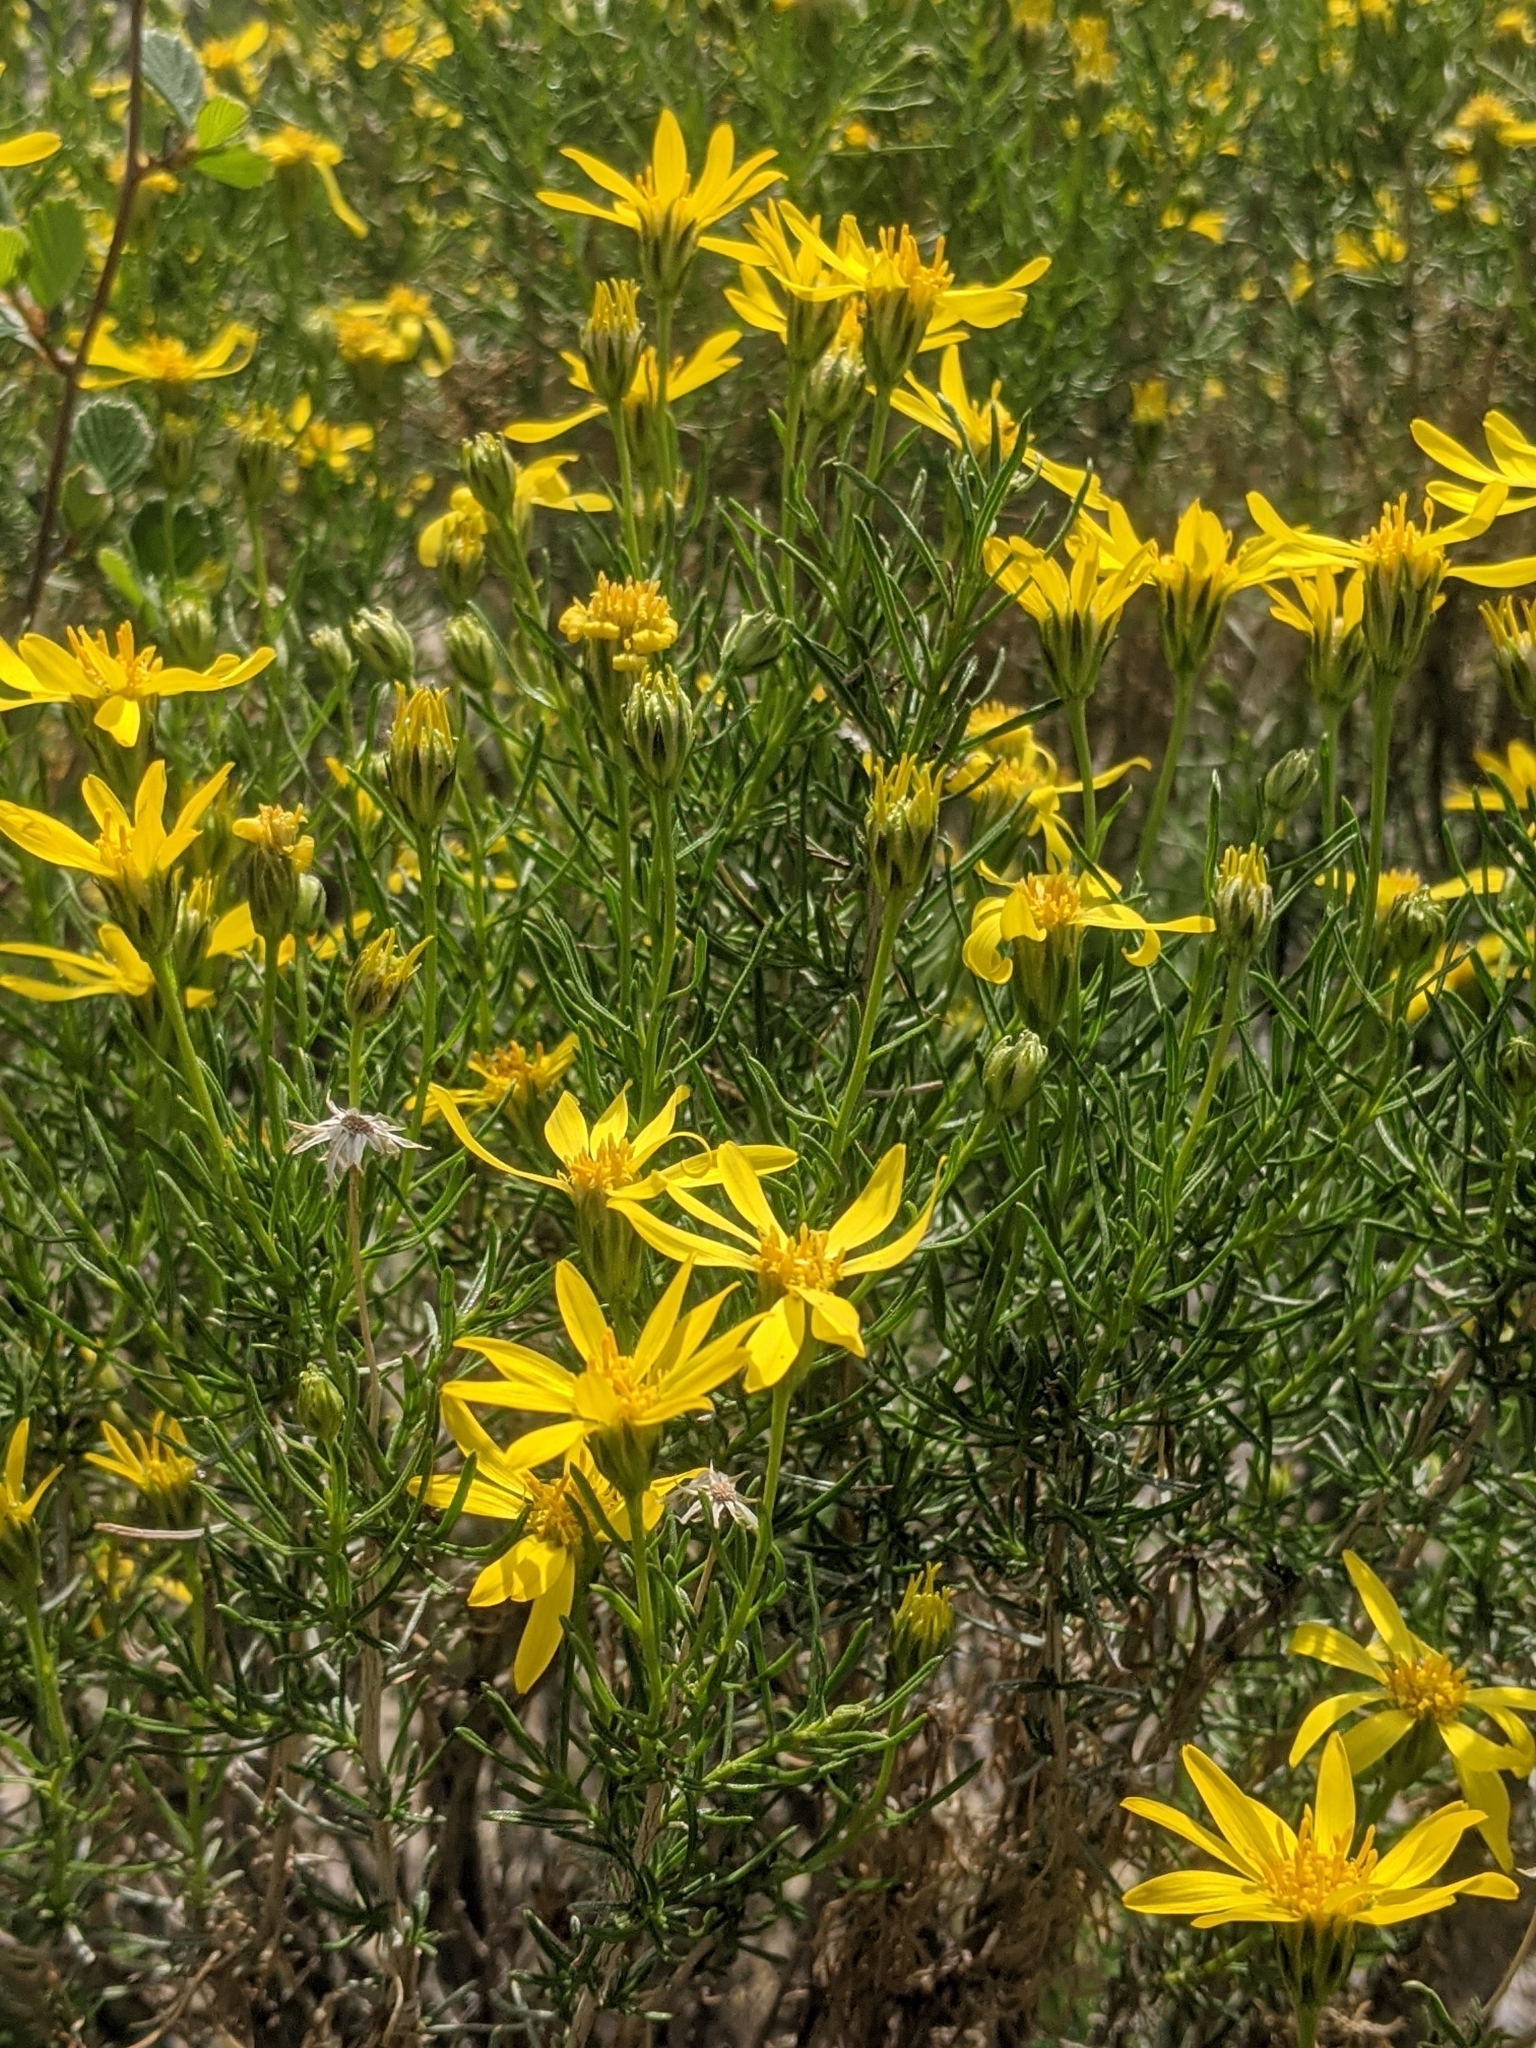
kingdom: Plantae
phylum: Tracheophyta
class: Magnoliopsida
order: Asterales
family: Asteraceae
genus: Ericameria
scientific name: Ericameria linearifolia
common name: Interior goldenbush
